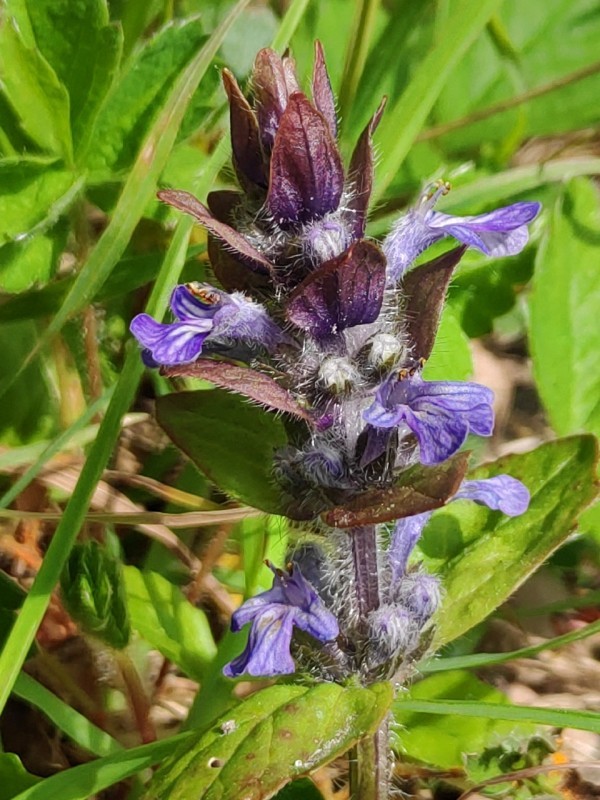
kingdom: Plantae
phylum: Tracheophyta
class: Magnoliopsida
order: Lamiales
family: Lamiaceae
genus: Ajuga
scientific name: Ajuga reptans
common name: Bugle
